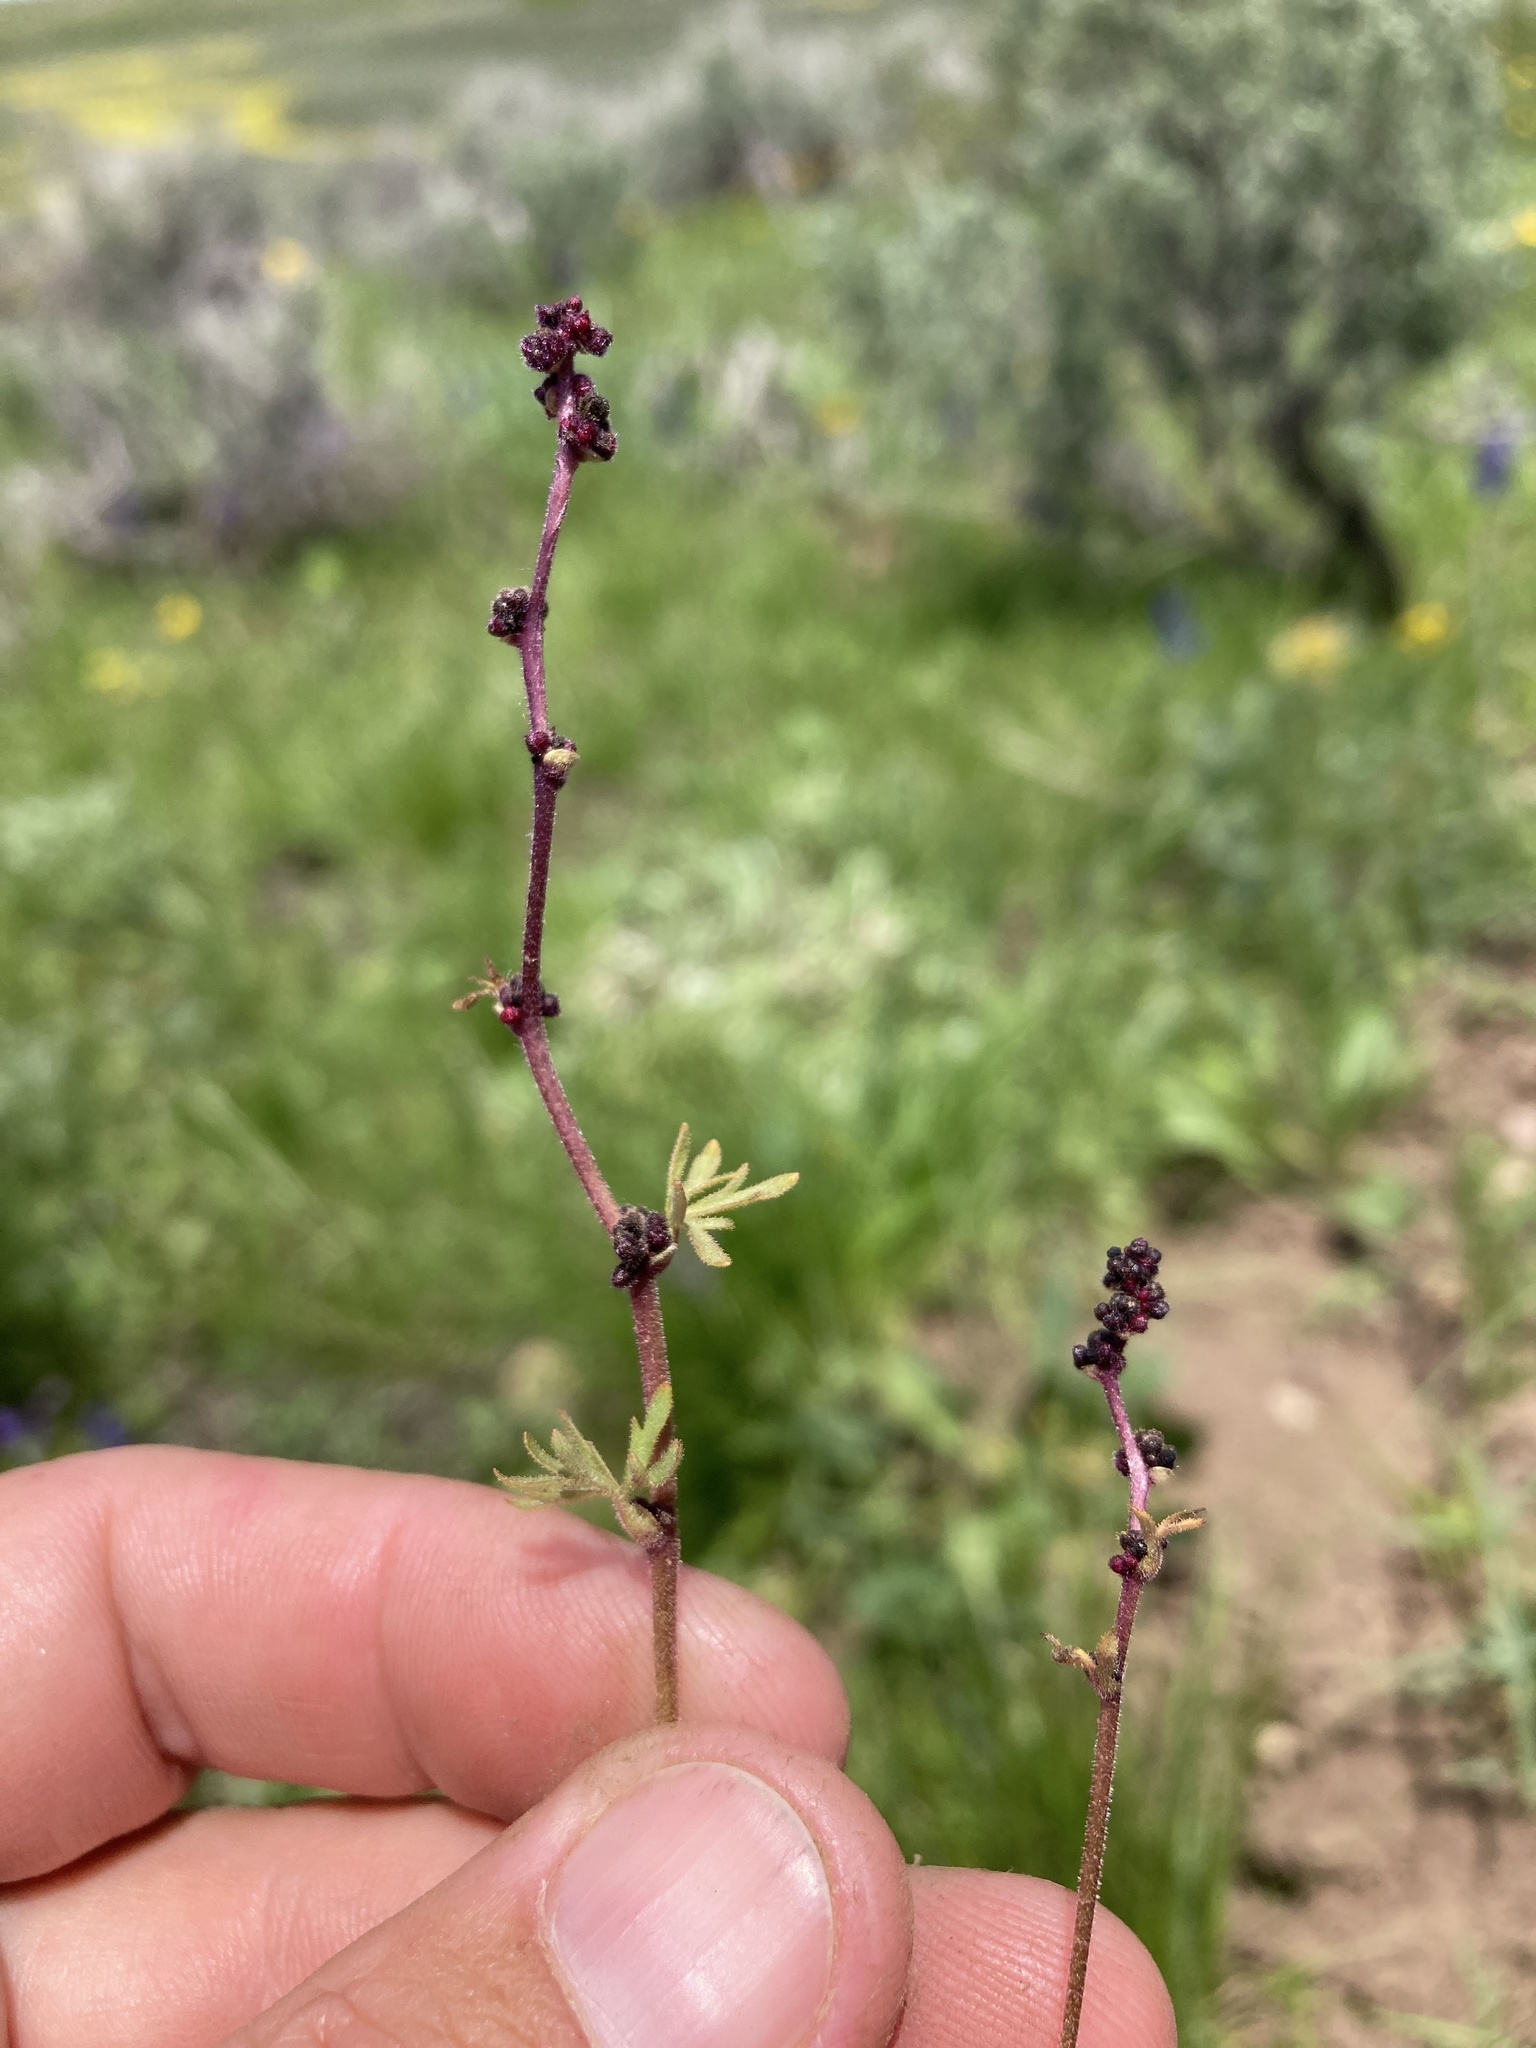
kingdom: Plantae
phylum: Tracheophyta
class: Magnoliopsida
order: Saxifragales
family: Saxifragaceae
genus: Lithophragma
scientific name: Lithophragma glabrum
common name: Bulbous prairie-star
